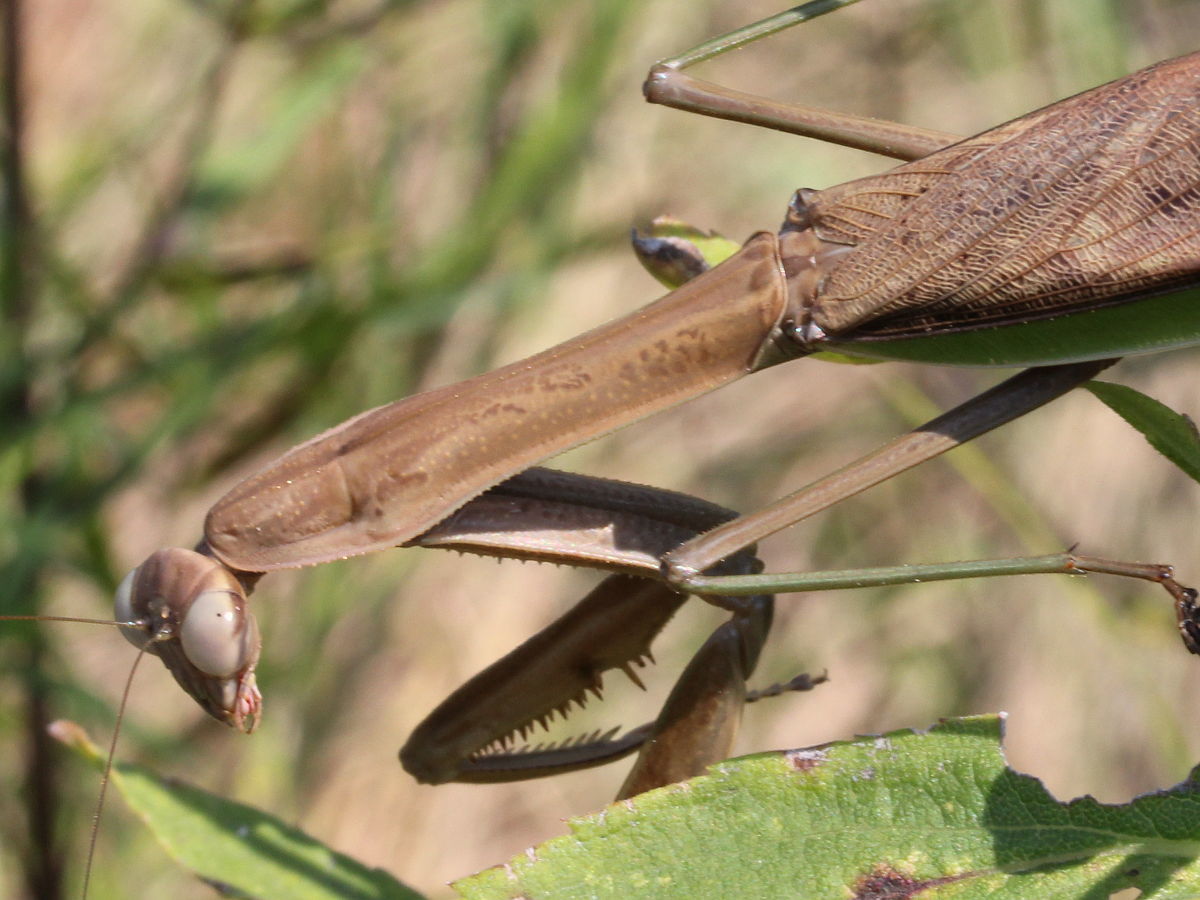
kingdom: Animalia
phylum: Arthropoda
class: Insecta
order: Mantodea
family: Mantidae
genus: Tenodera
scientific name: Tenodera sinensis
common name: Chinese mantis
